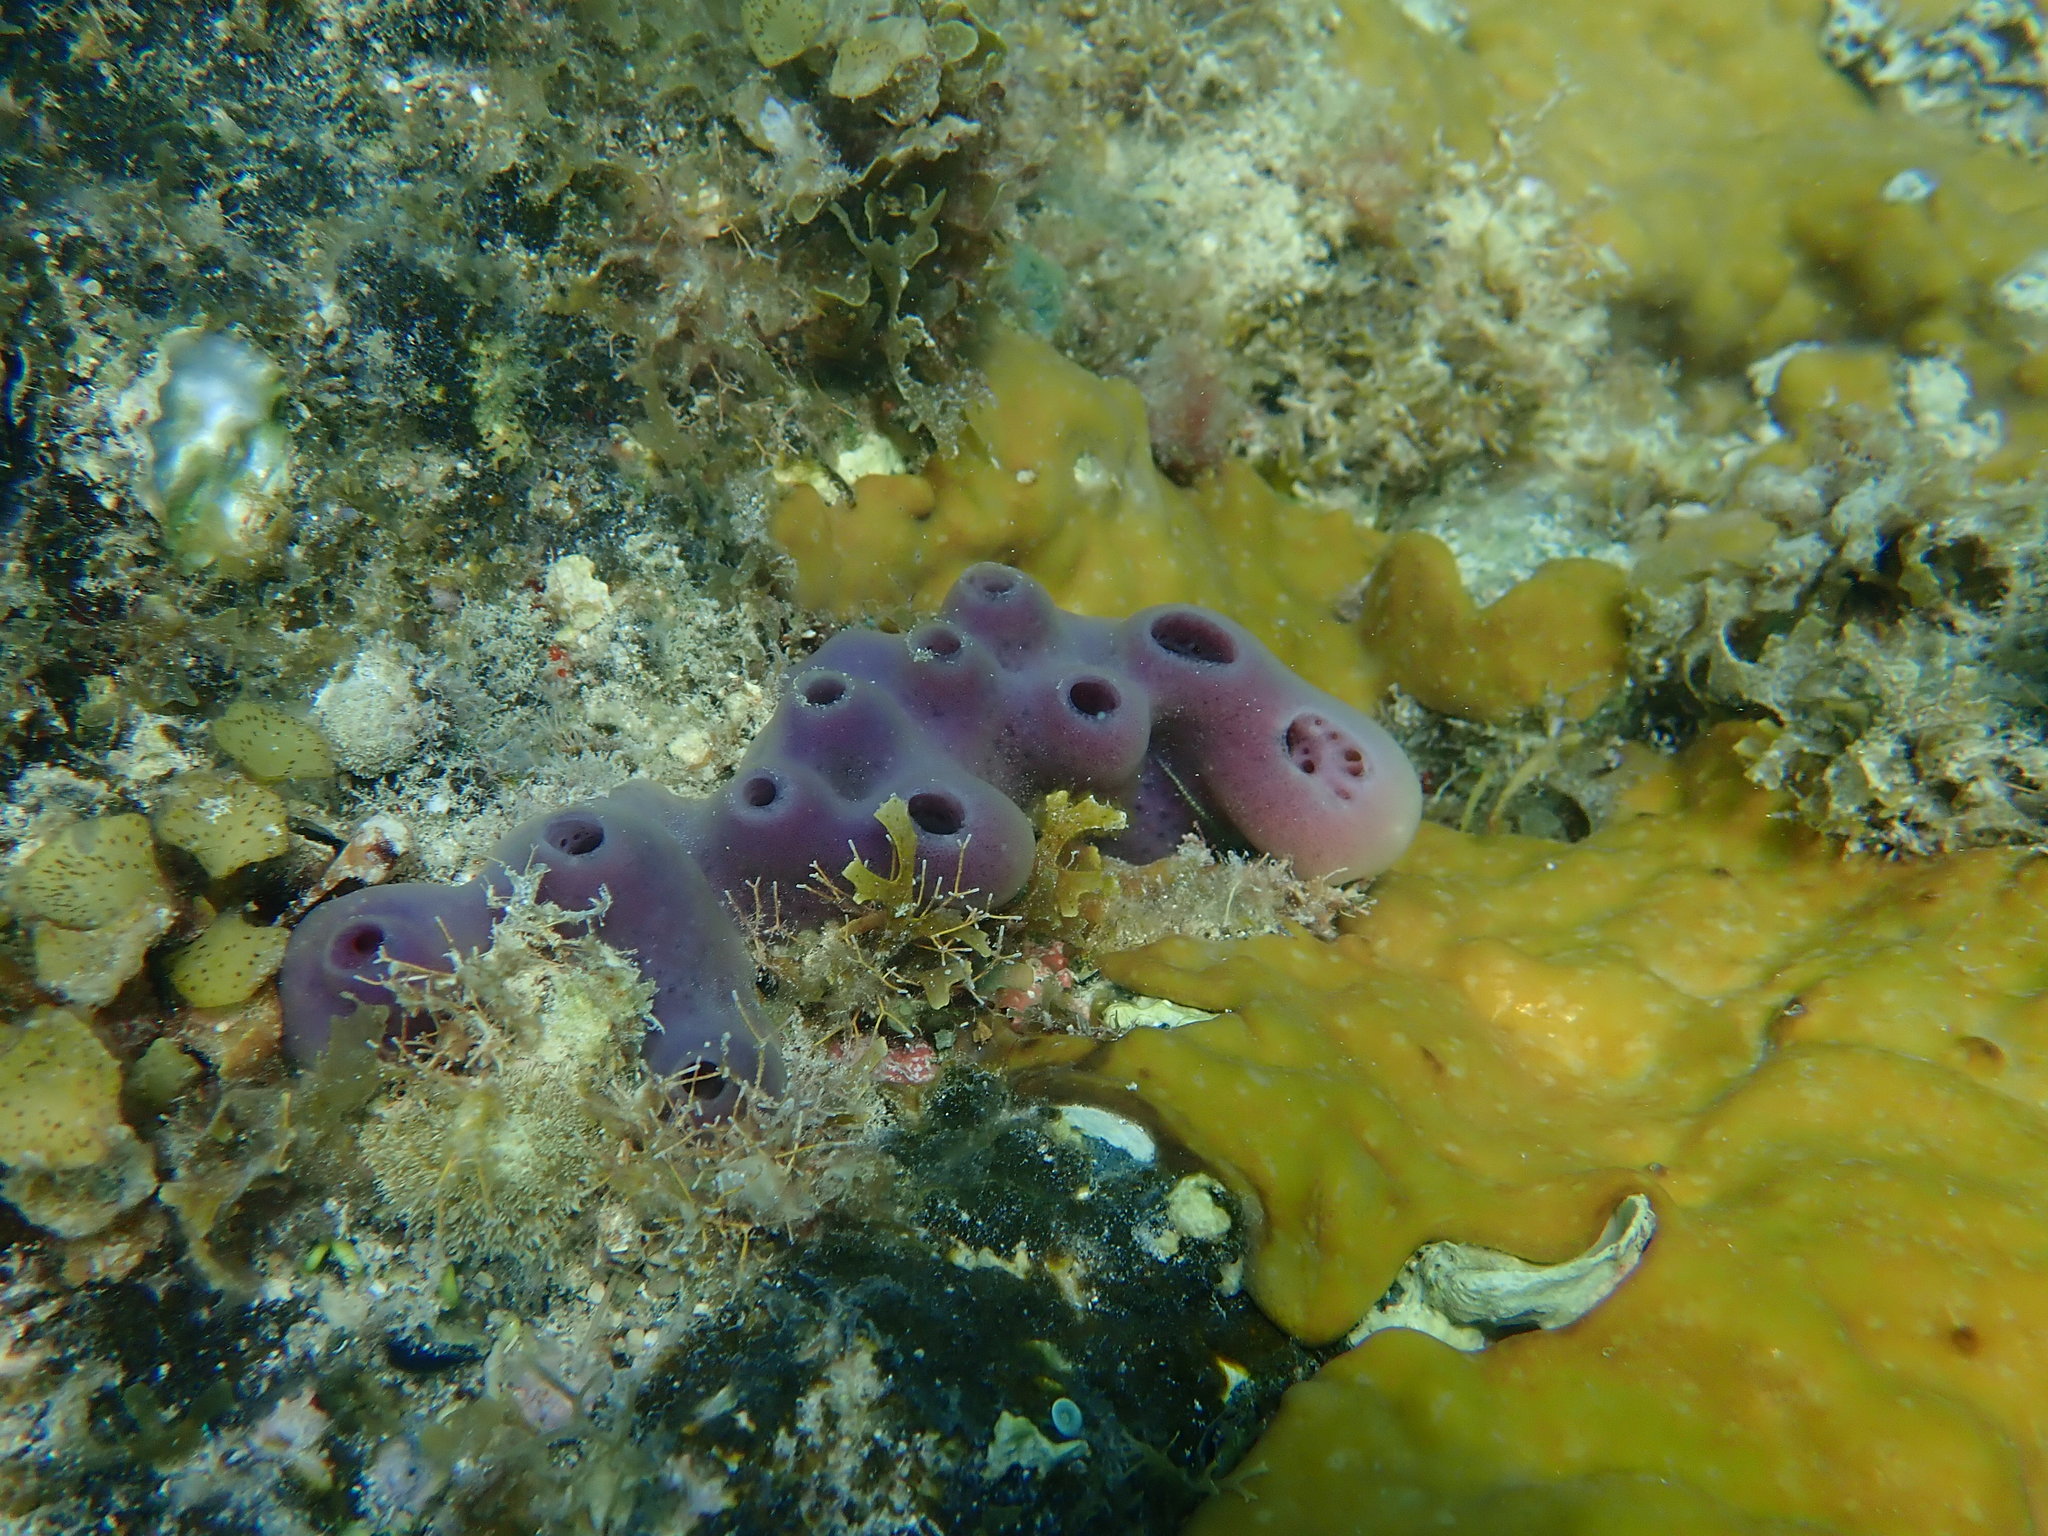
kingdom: Animalia
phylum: Porifera
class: Demospongiae
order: Haplosclerida
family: Callyspongiidae
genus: Callyspongia
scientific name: Callyspongia fallax
